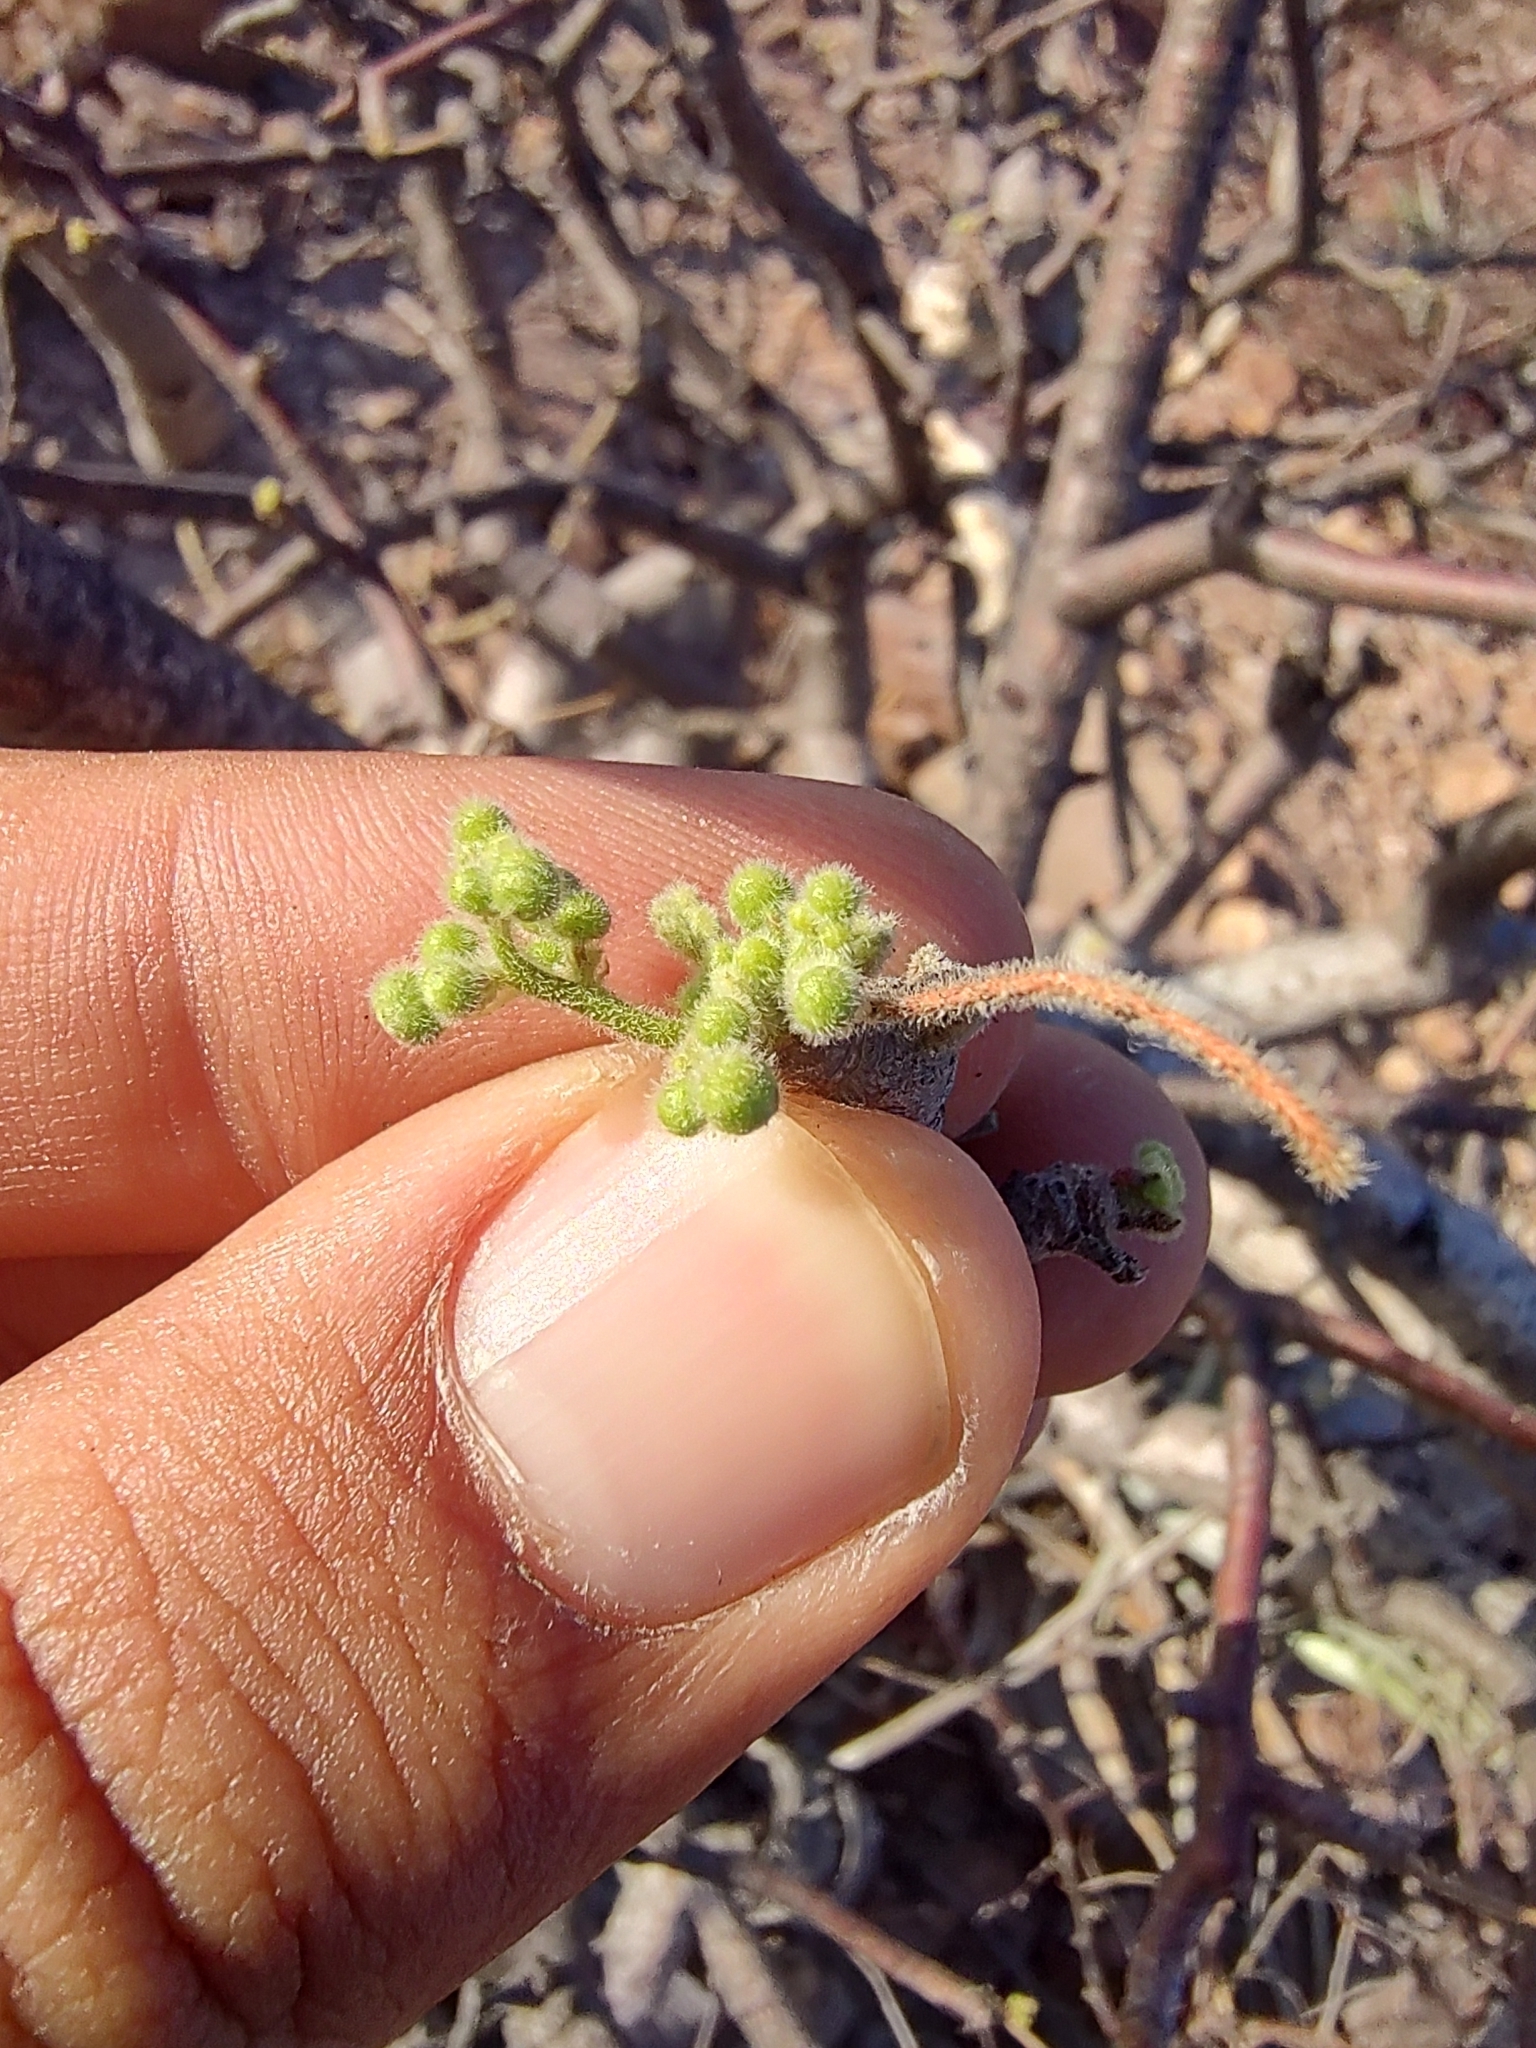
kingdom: Plantae
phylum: Tracheophyta
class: Magnoliopsida
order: Sapindales
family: Anacardiaceae
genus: Cyrtocarpa
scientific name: Cyrtocarpa edulis
